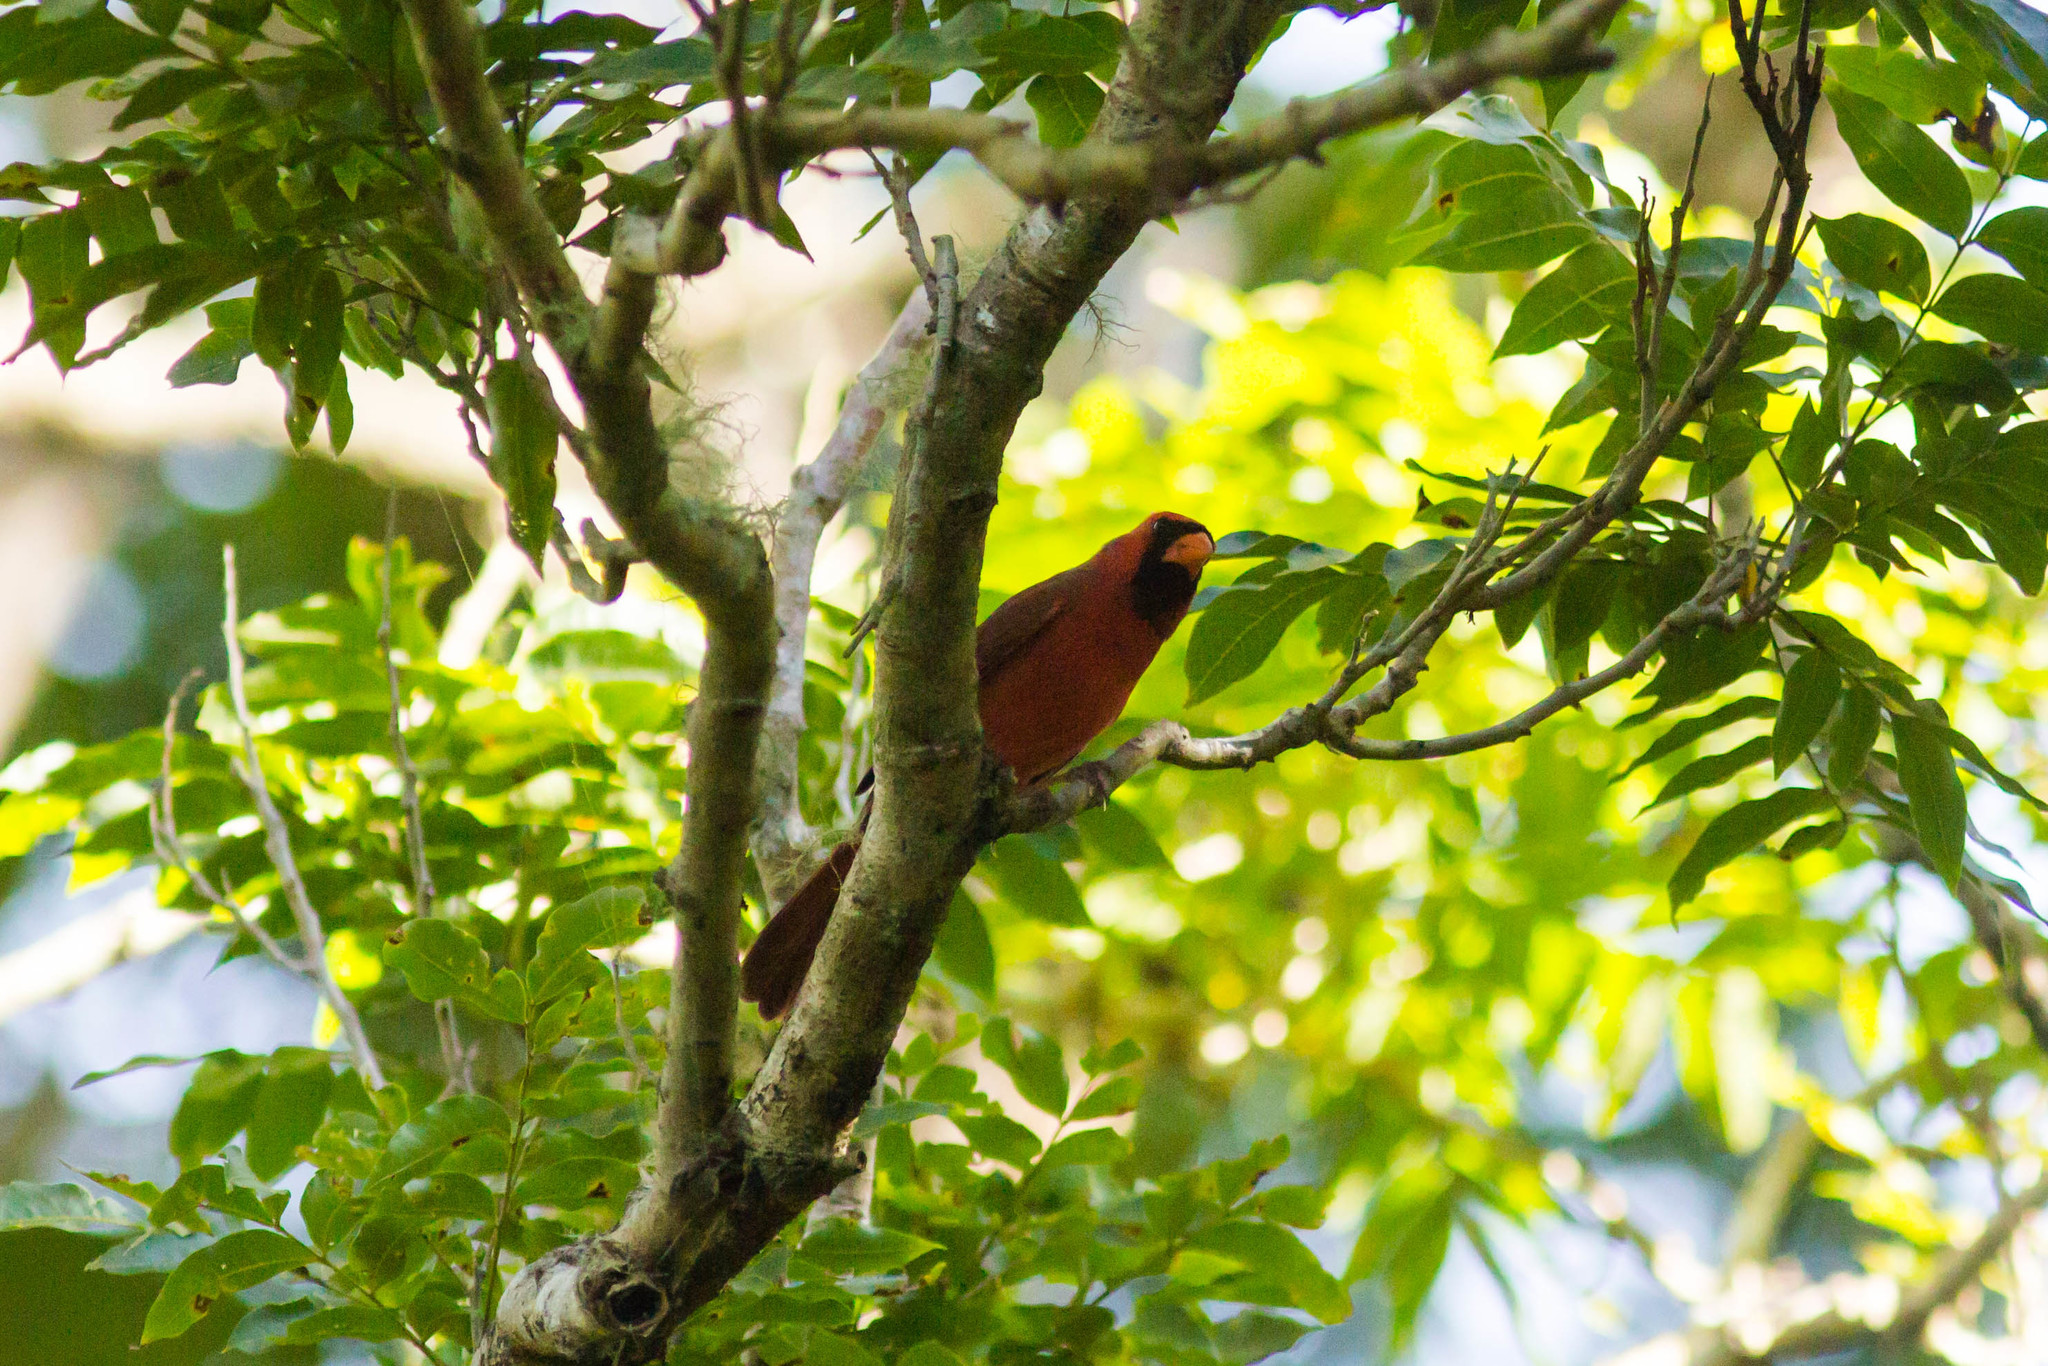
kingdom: Animalia
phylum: Chordata
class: Aves
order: Passeriformes
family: Cardinalidae
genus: Cardinalis
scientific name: Cardinalis cardinalis
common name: Northern cardinal
